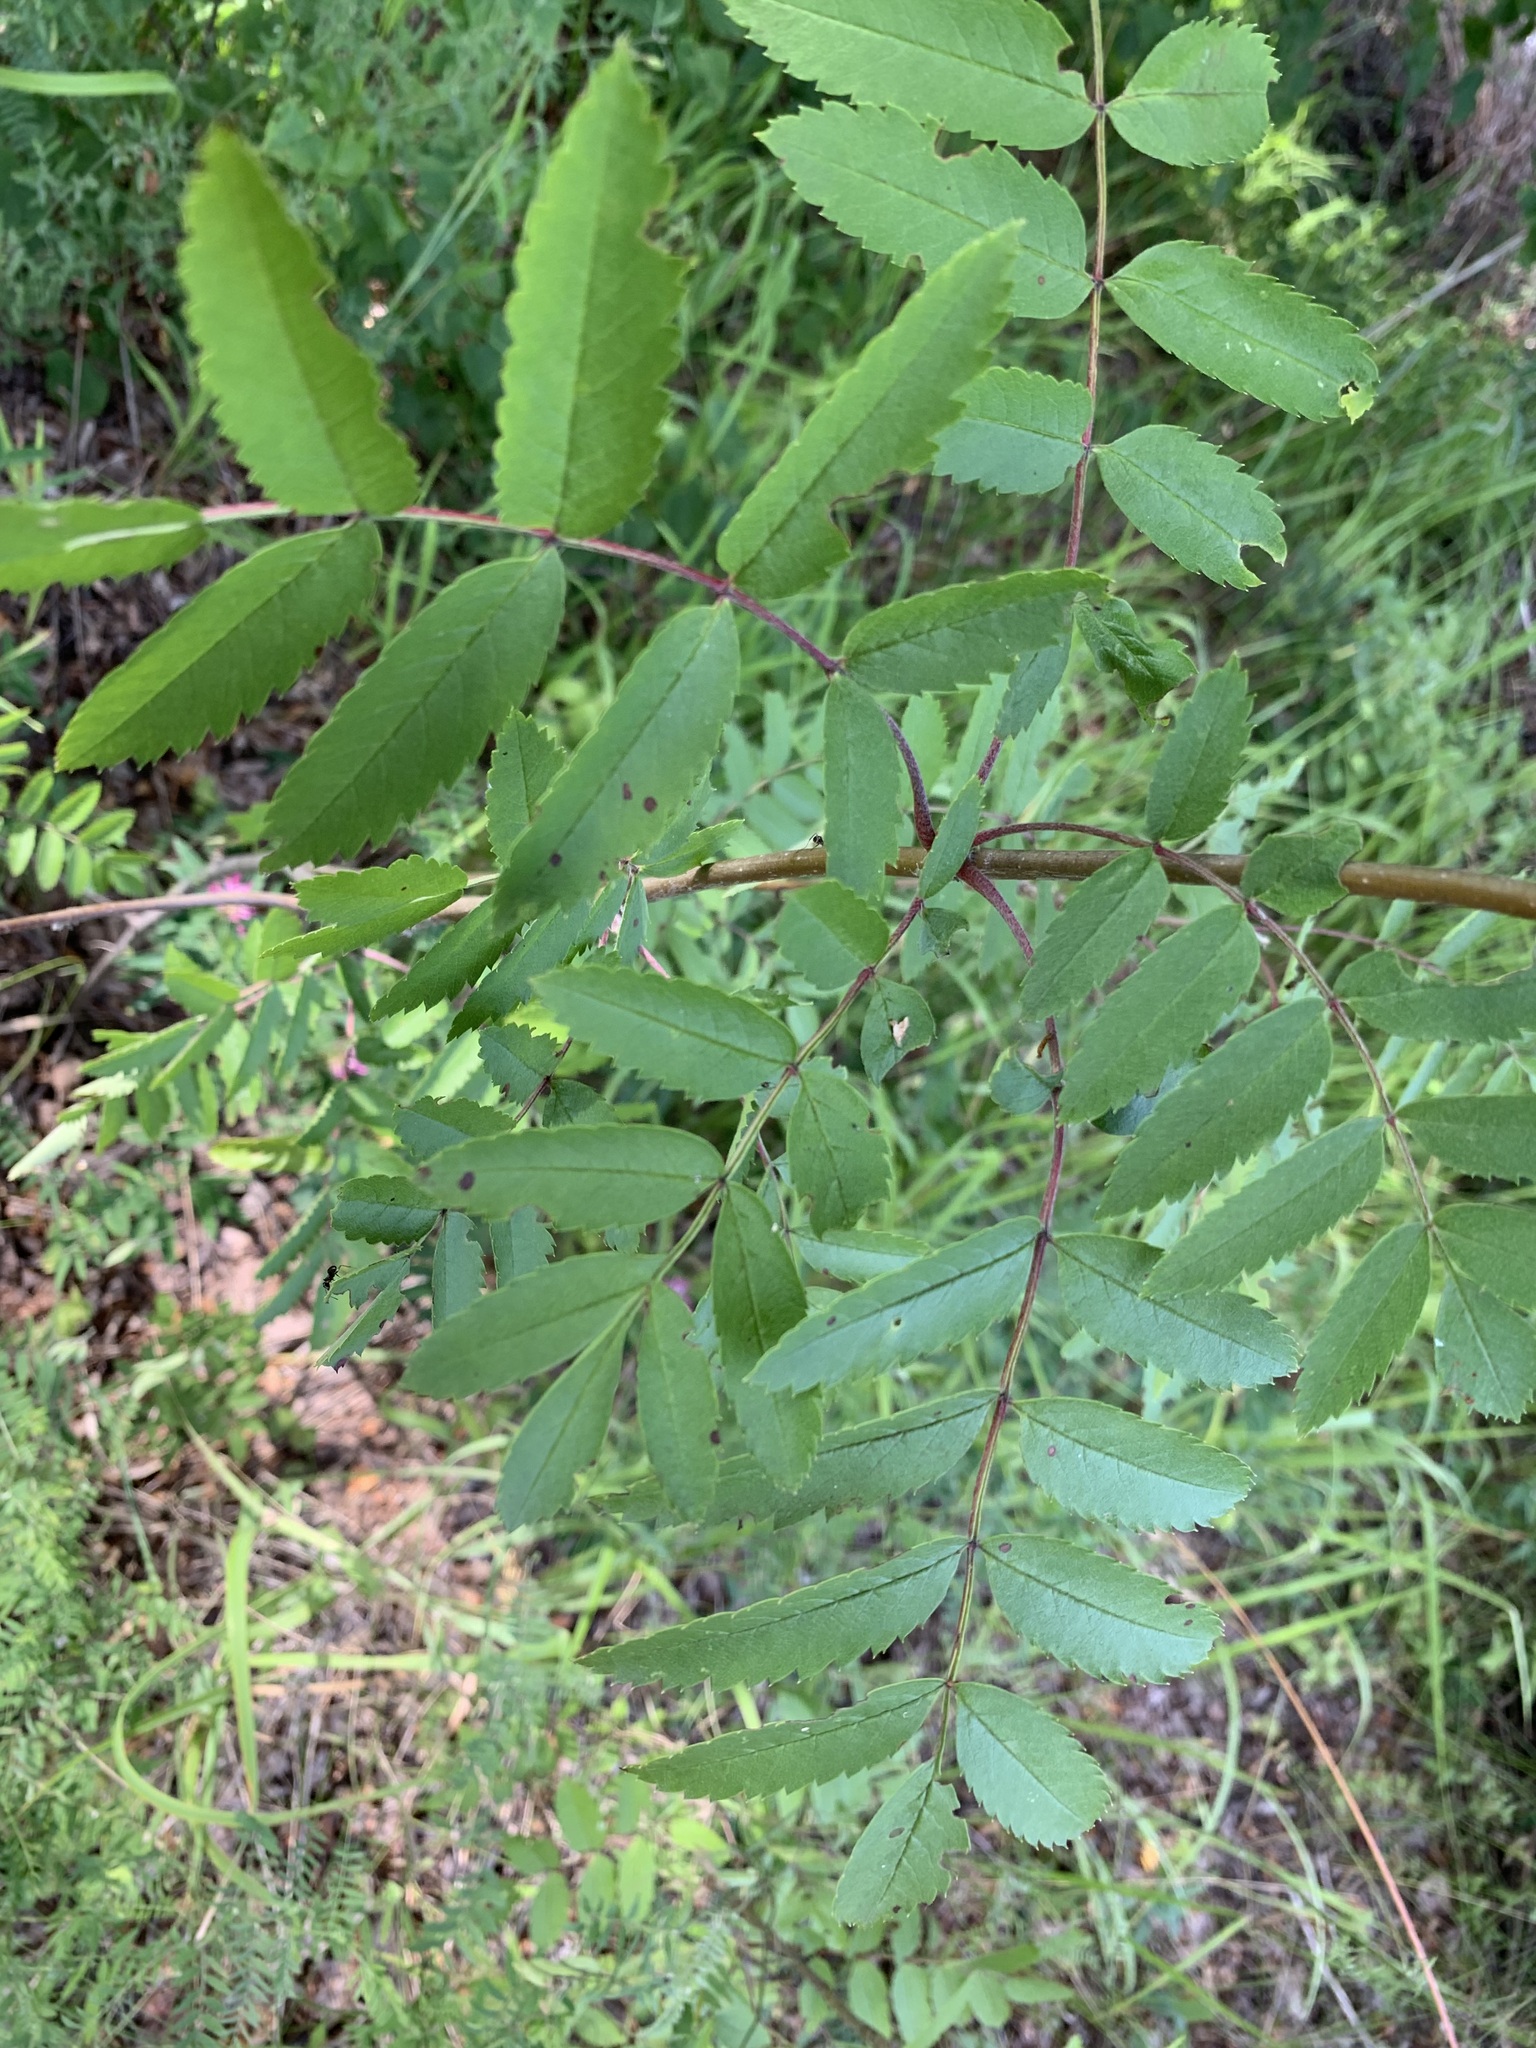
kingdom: Plantae
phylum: Tracheophyta
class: Magnoliopsida
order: Rosales
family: Rosaceae
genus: Sorbus
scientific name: Sorbus aucuparia
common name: Rowan
